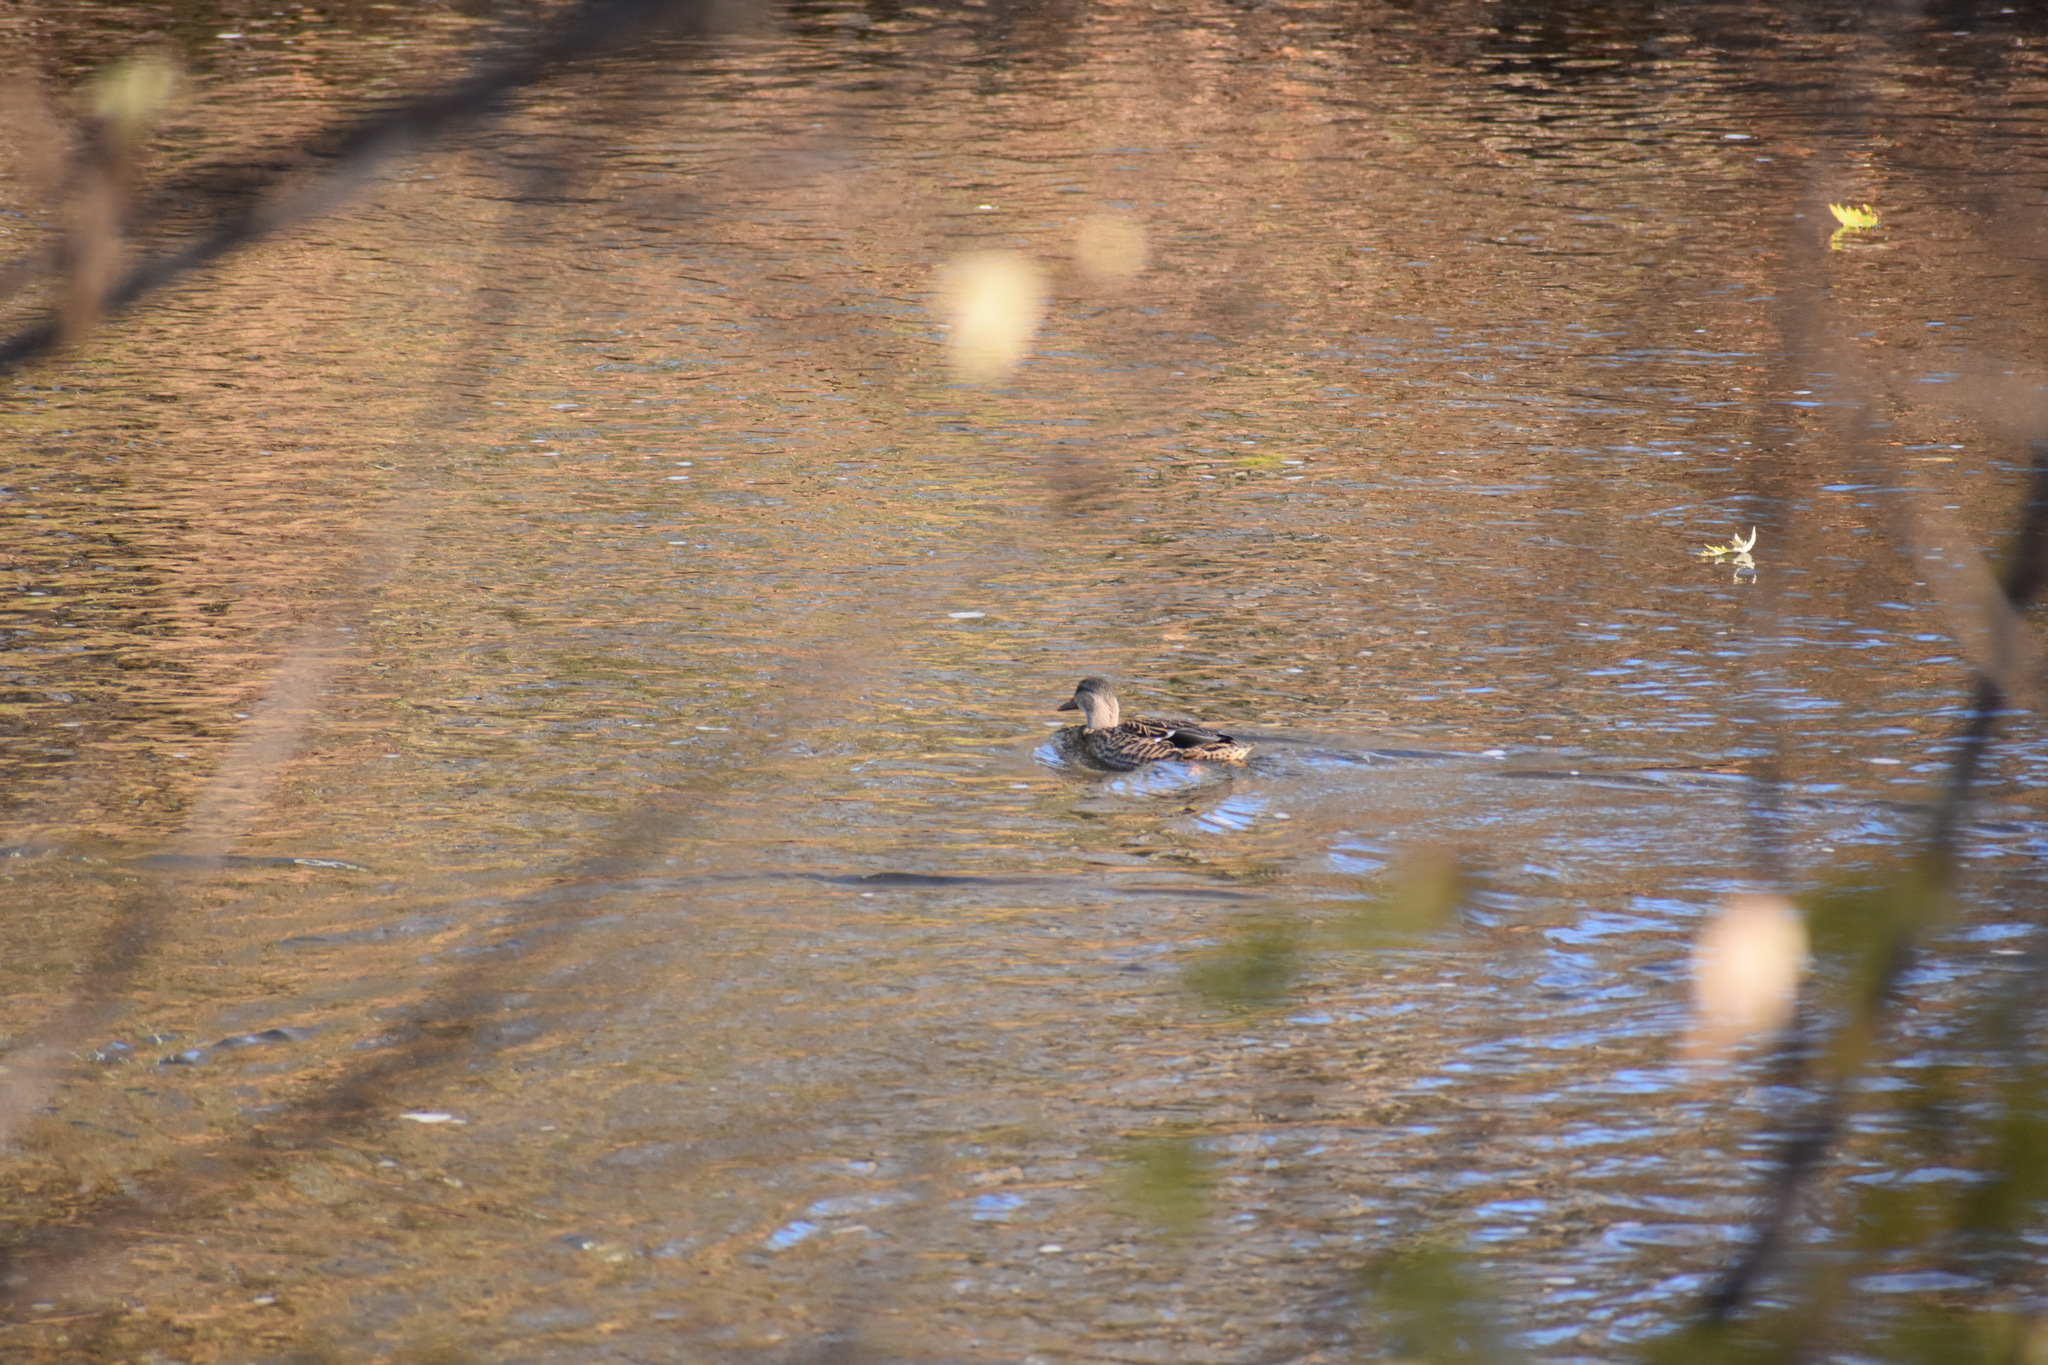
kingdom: Animalia
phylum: Chordata
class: Aves
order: Anseriformes
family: Anatidae
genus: Anas
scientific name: Anas platyrhynchos
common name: Mallard
